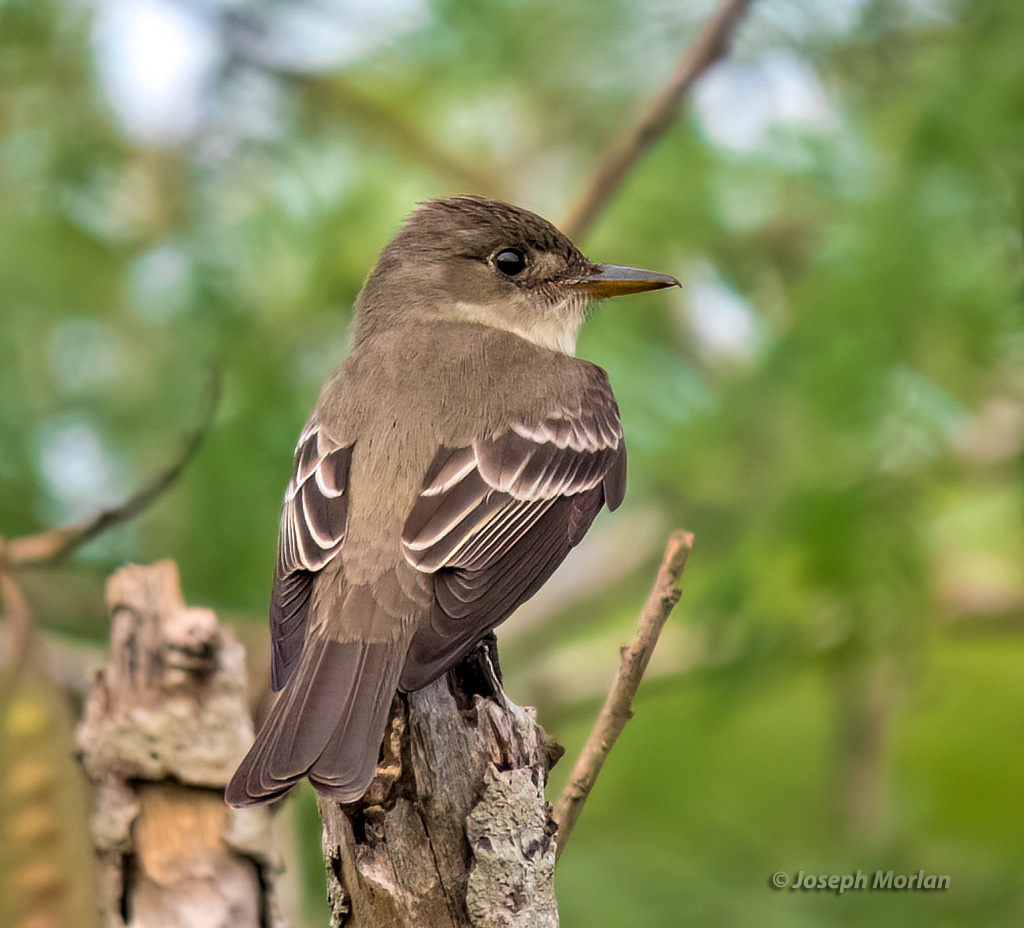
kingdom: Animalia
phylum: Chordata
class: Aves
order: Passeriformes
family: Tyrannidae
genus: Contopus
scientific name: Contopus virens
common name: Eastern wood-pewee
